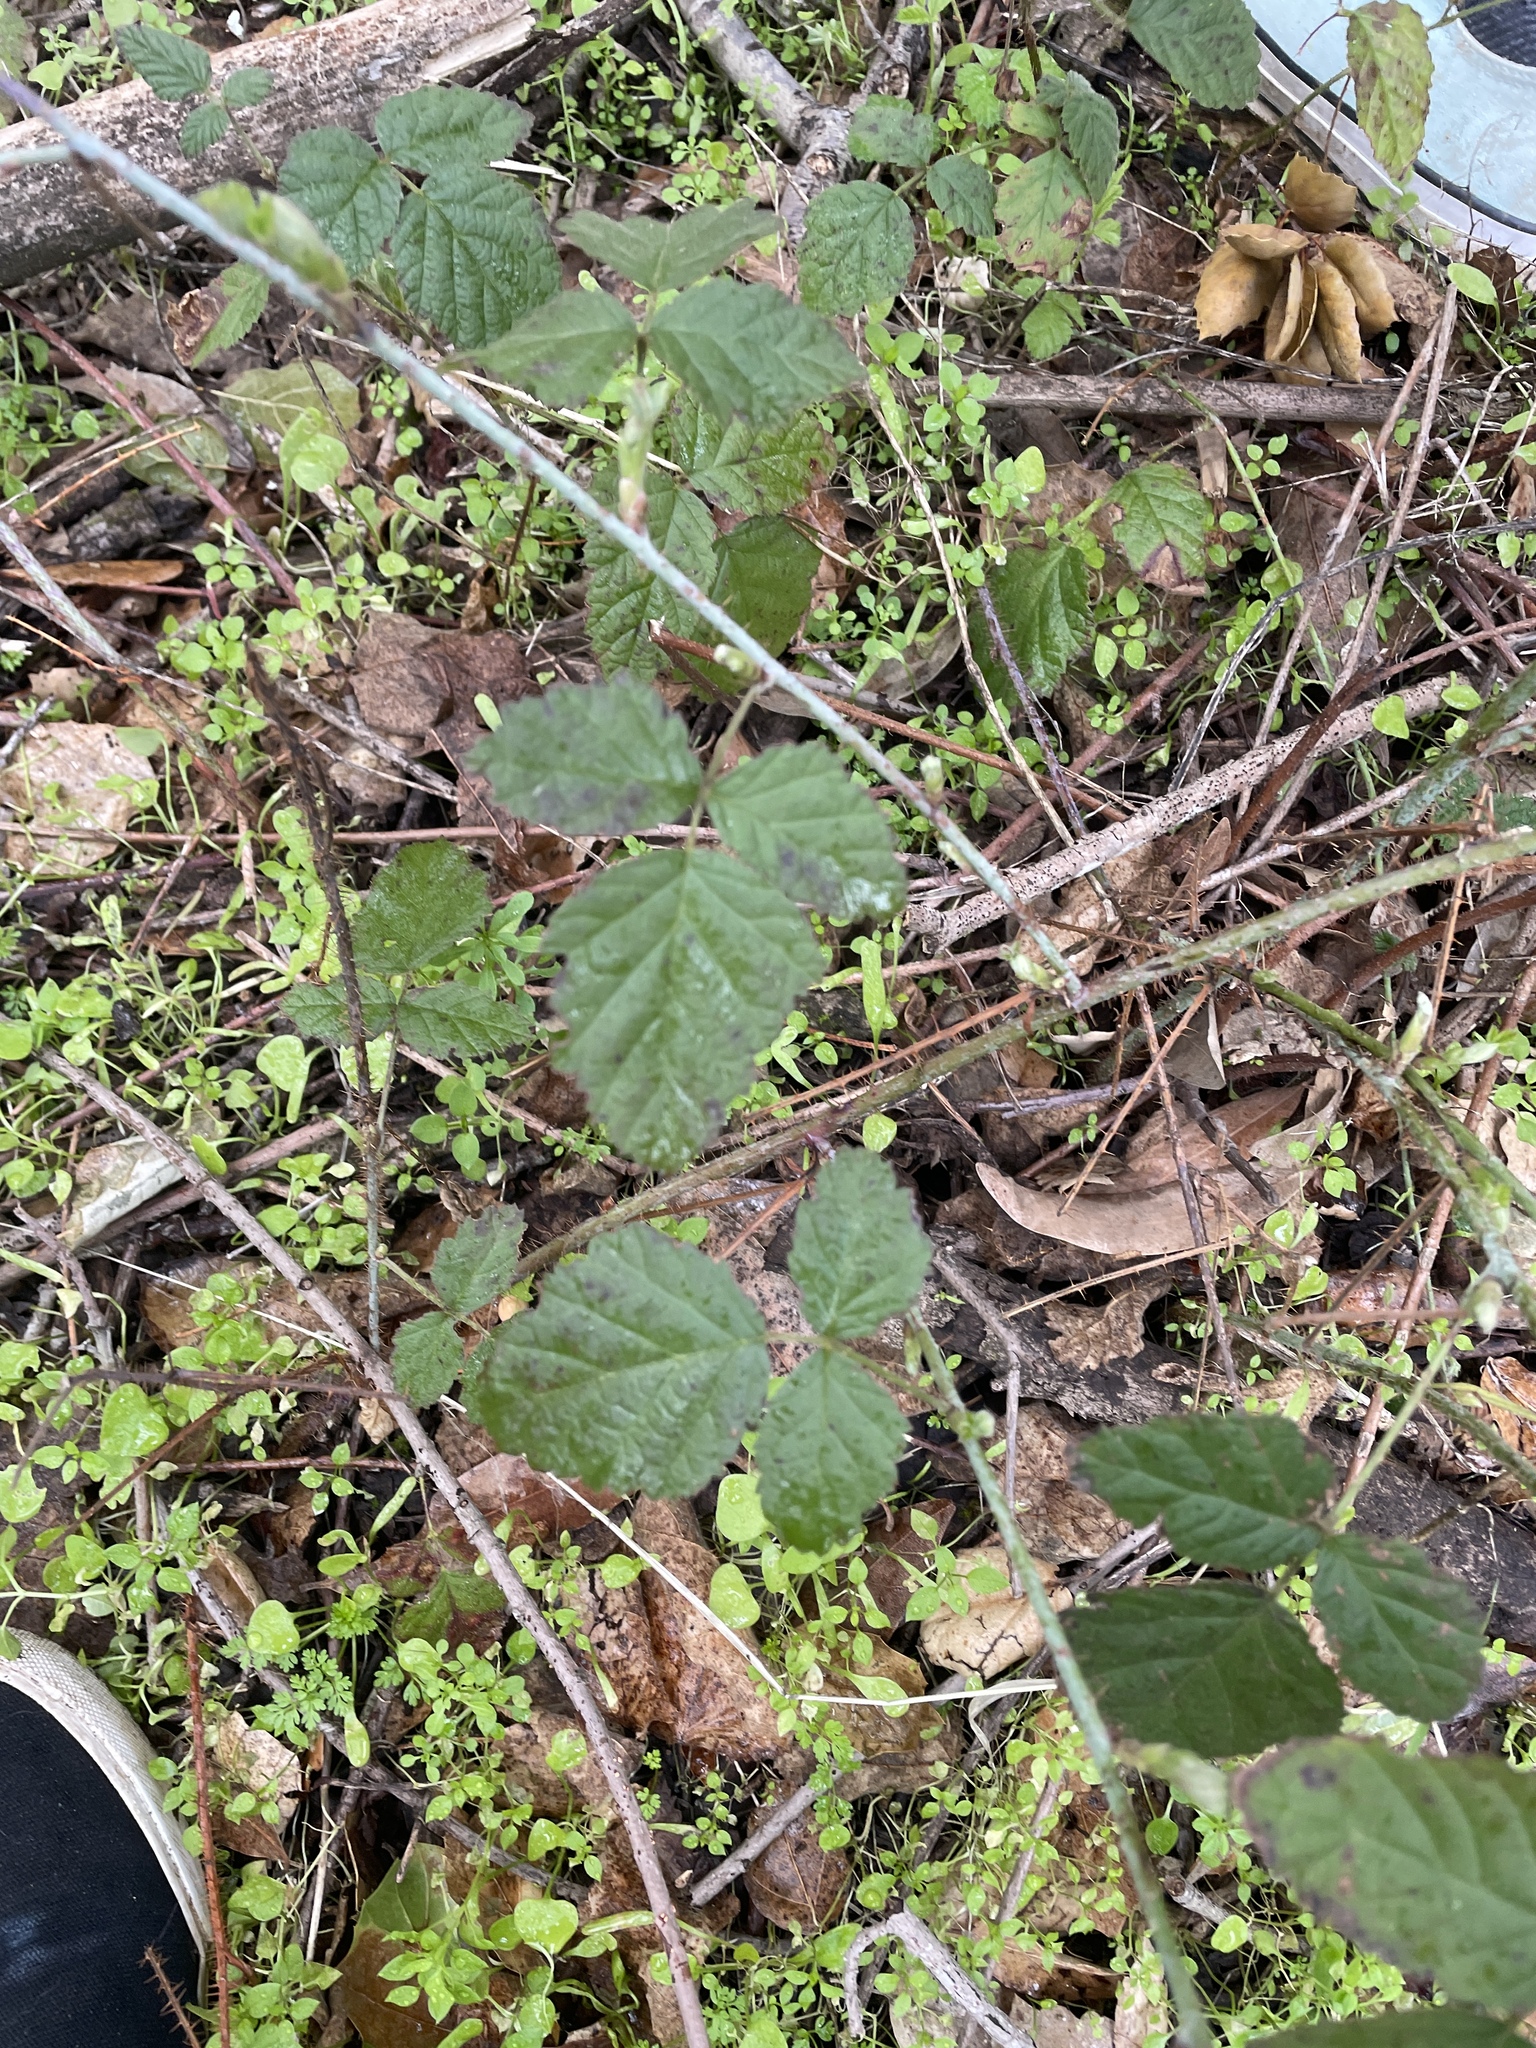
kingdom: Plantae
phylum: Tracheophyta
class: Magnoliopsida
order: Rosales
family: Rosaceae
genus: Rubus
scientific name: Rubus ursinus
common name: Pacific blackberry
